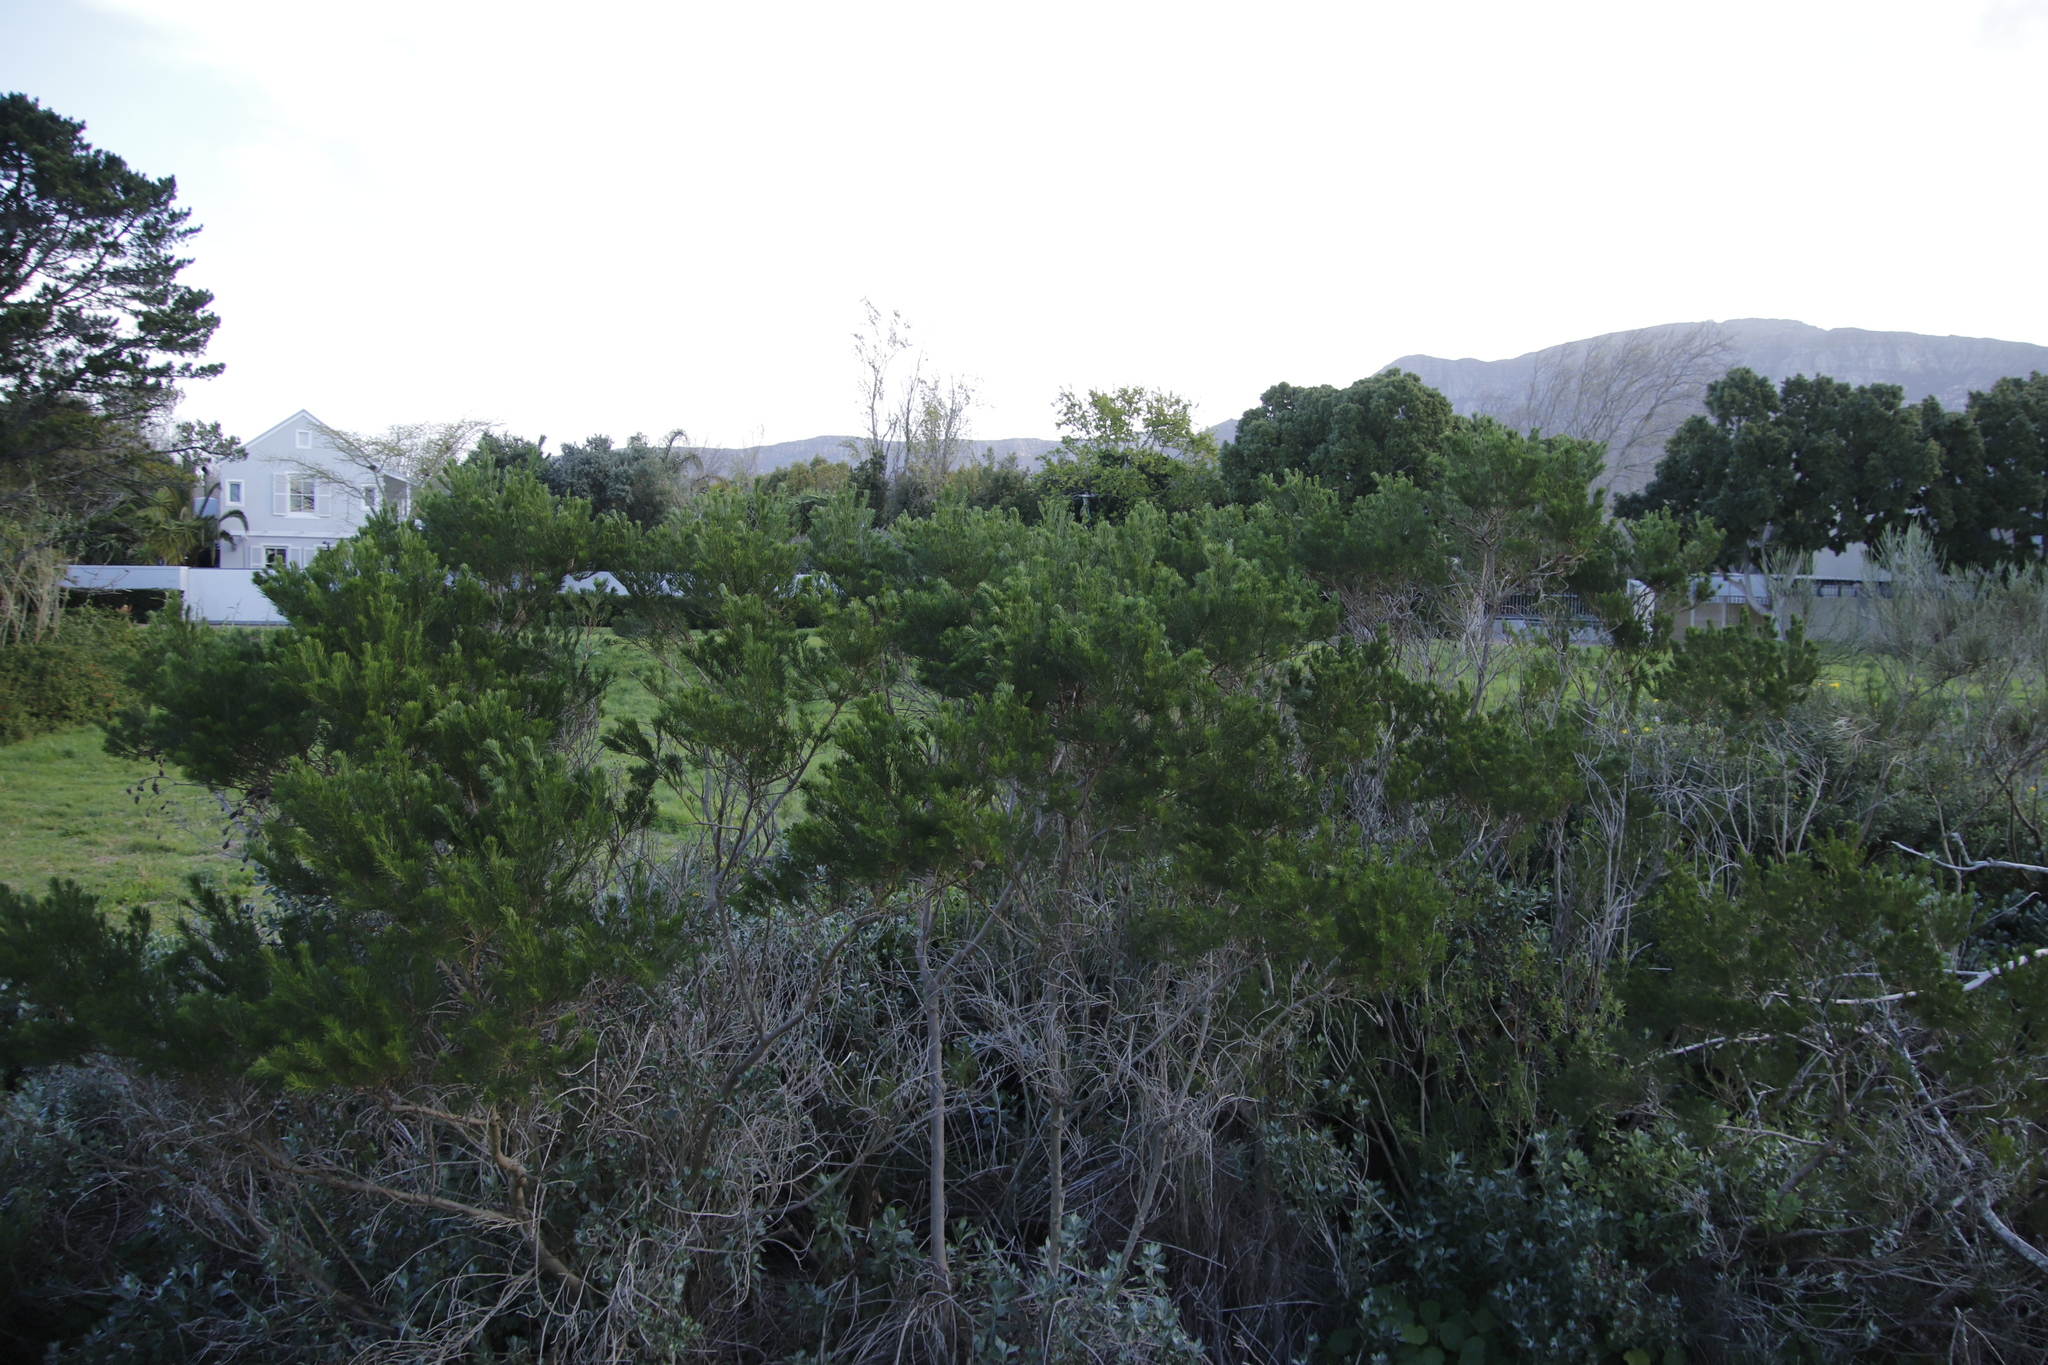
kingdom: Plantae
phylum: Tracheophyta
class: Magnoliopsida
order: Fabales
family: Fabaceae
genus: Psoralea
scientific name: Psoralea pinnata
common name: African scurfpea
